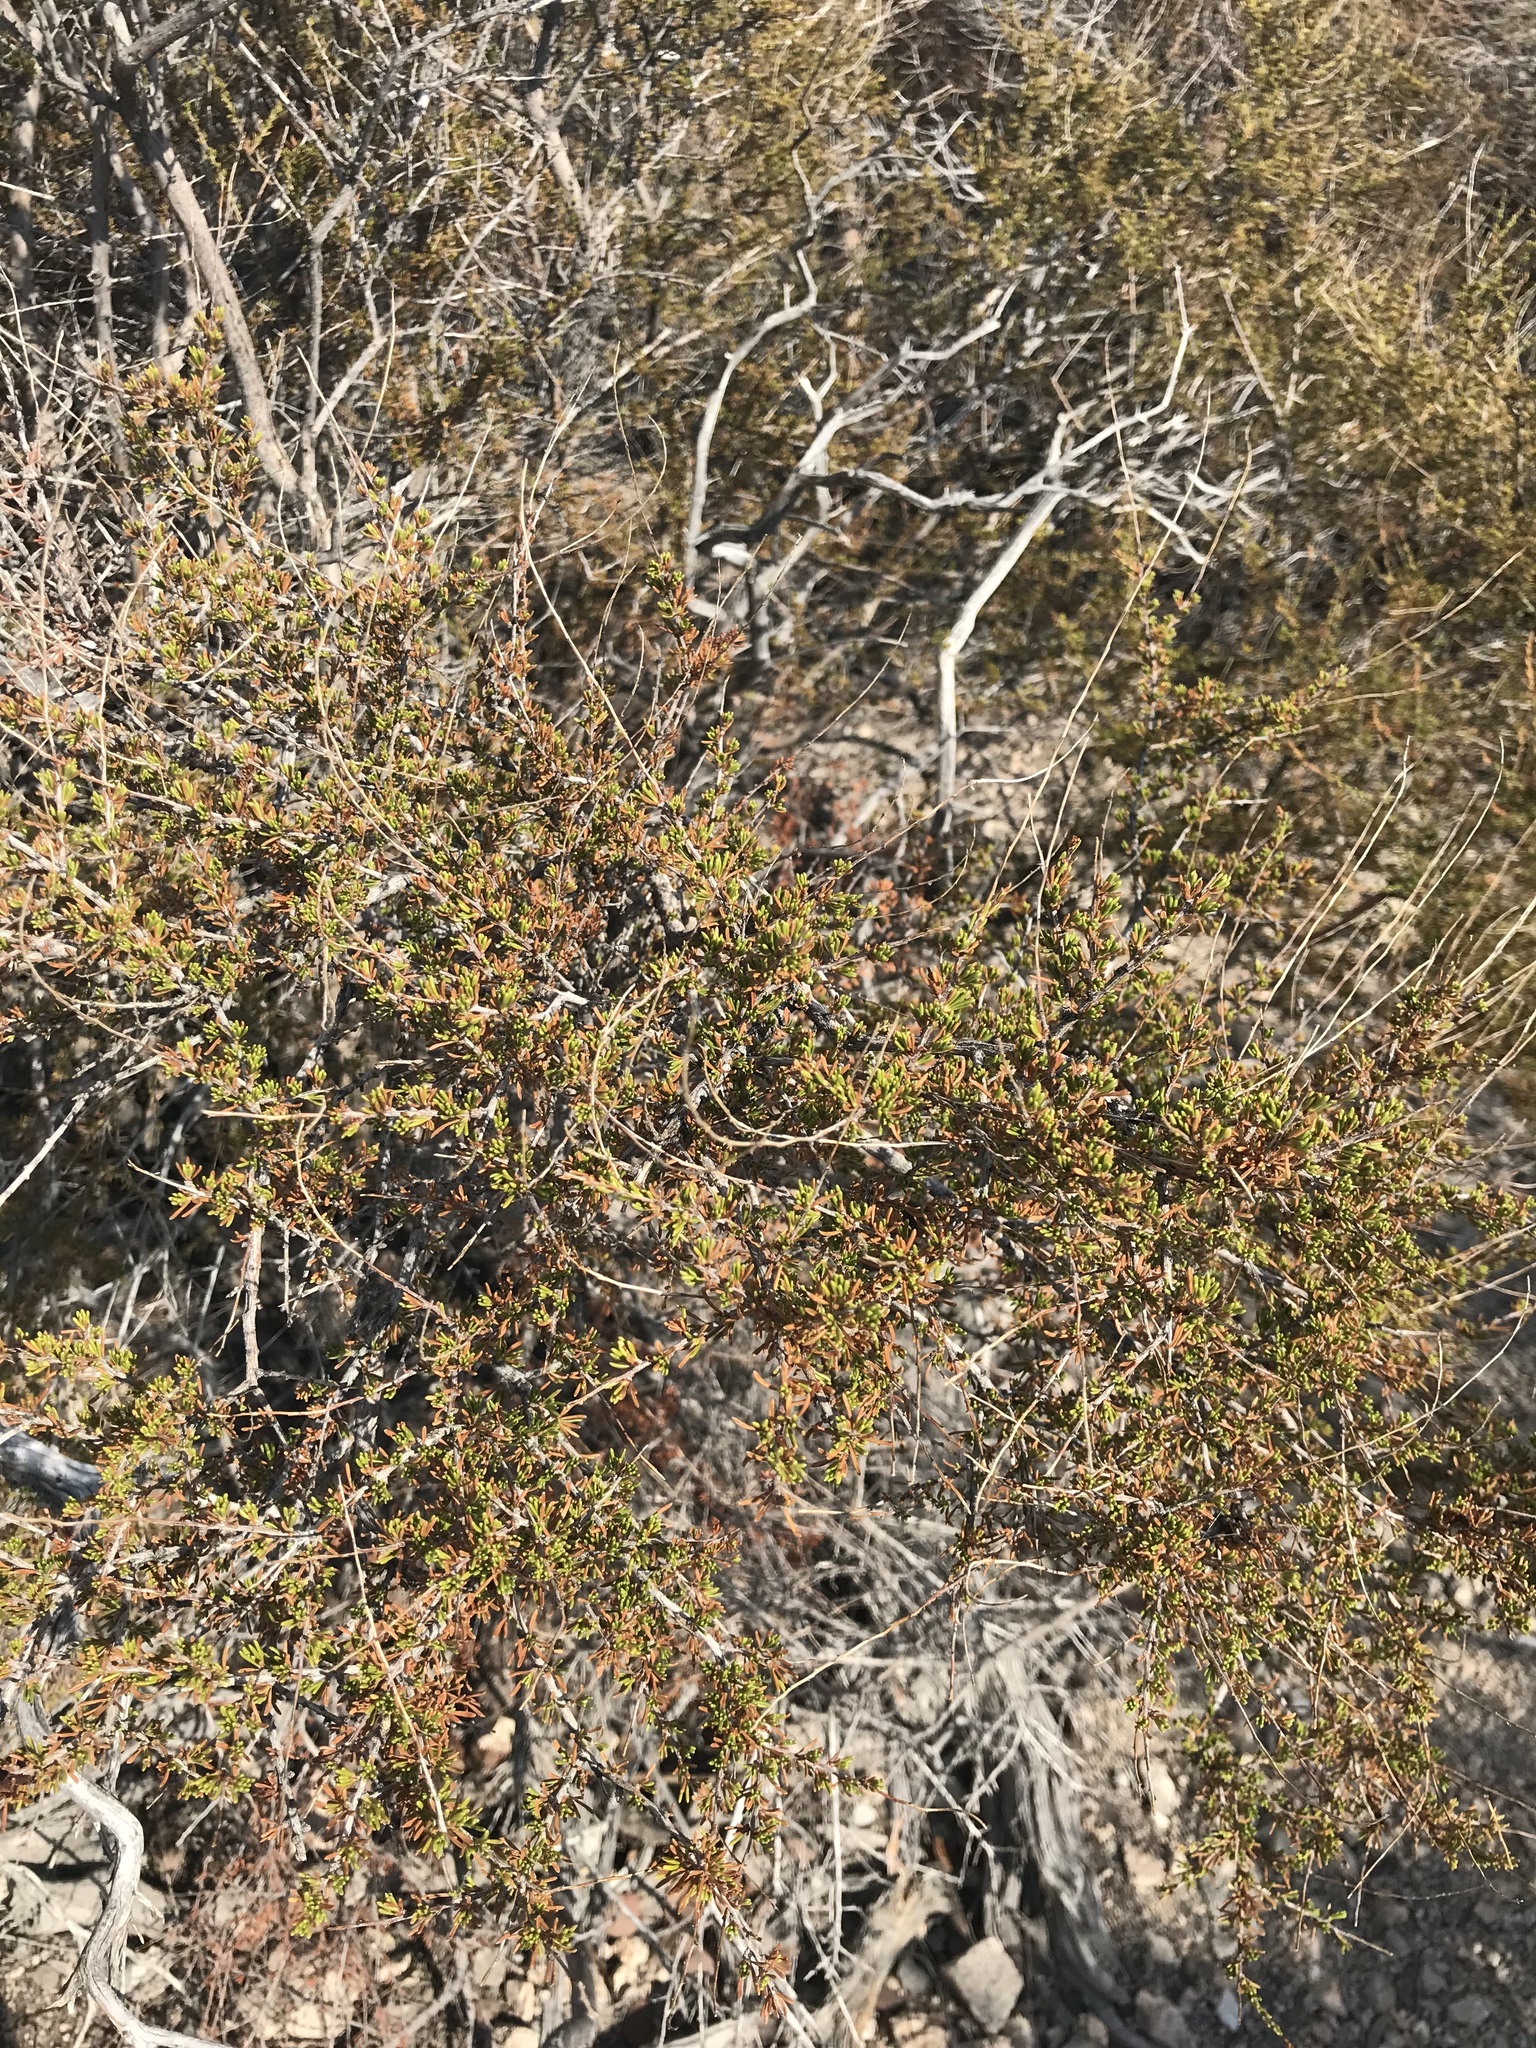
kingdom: Plantae
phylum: Tracheophyta
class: Magnoliopsida
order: Rosales
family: Rosaceae
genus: Adenostoma
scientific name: Adenostoma fasciculatum
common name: Chamise
